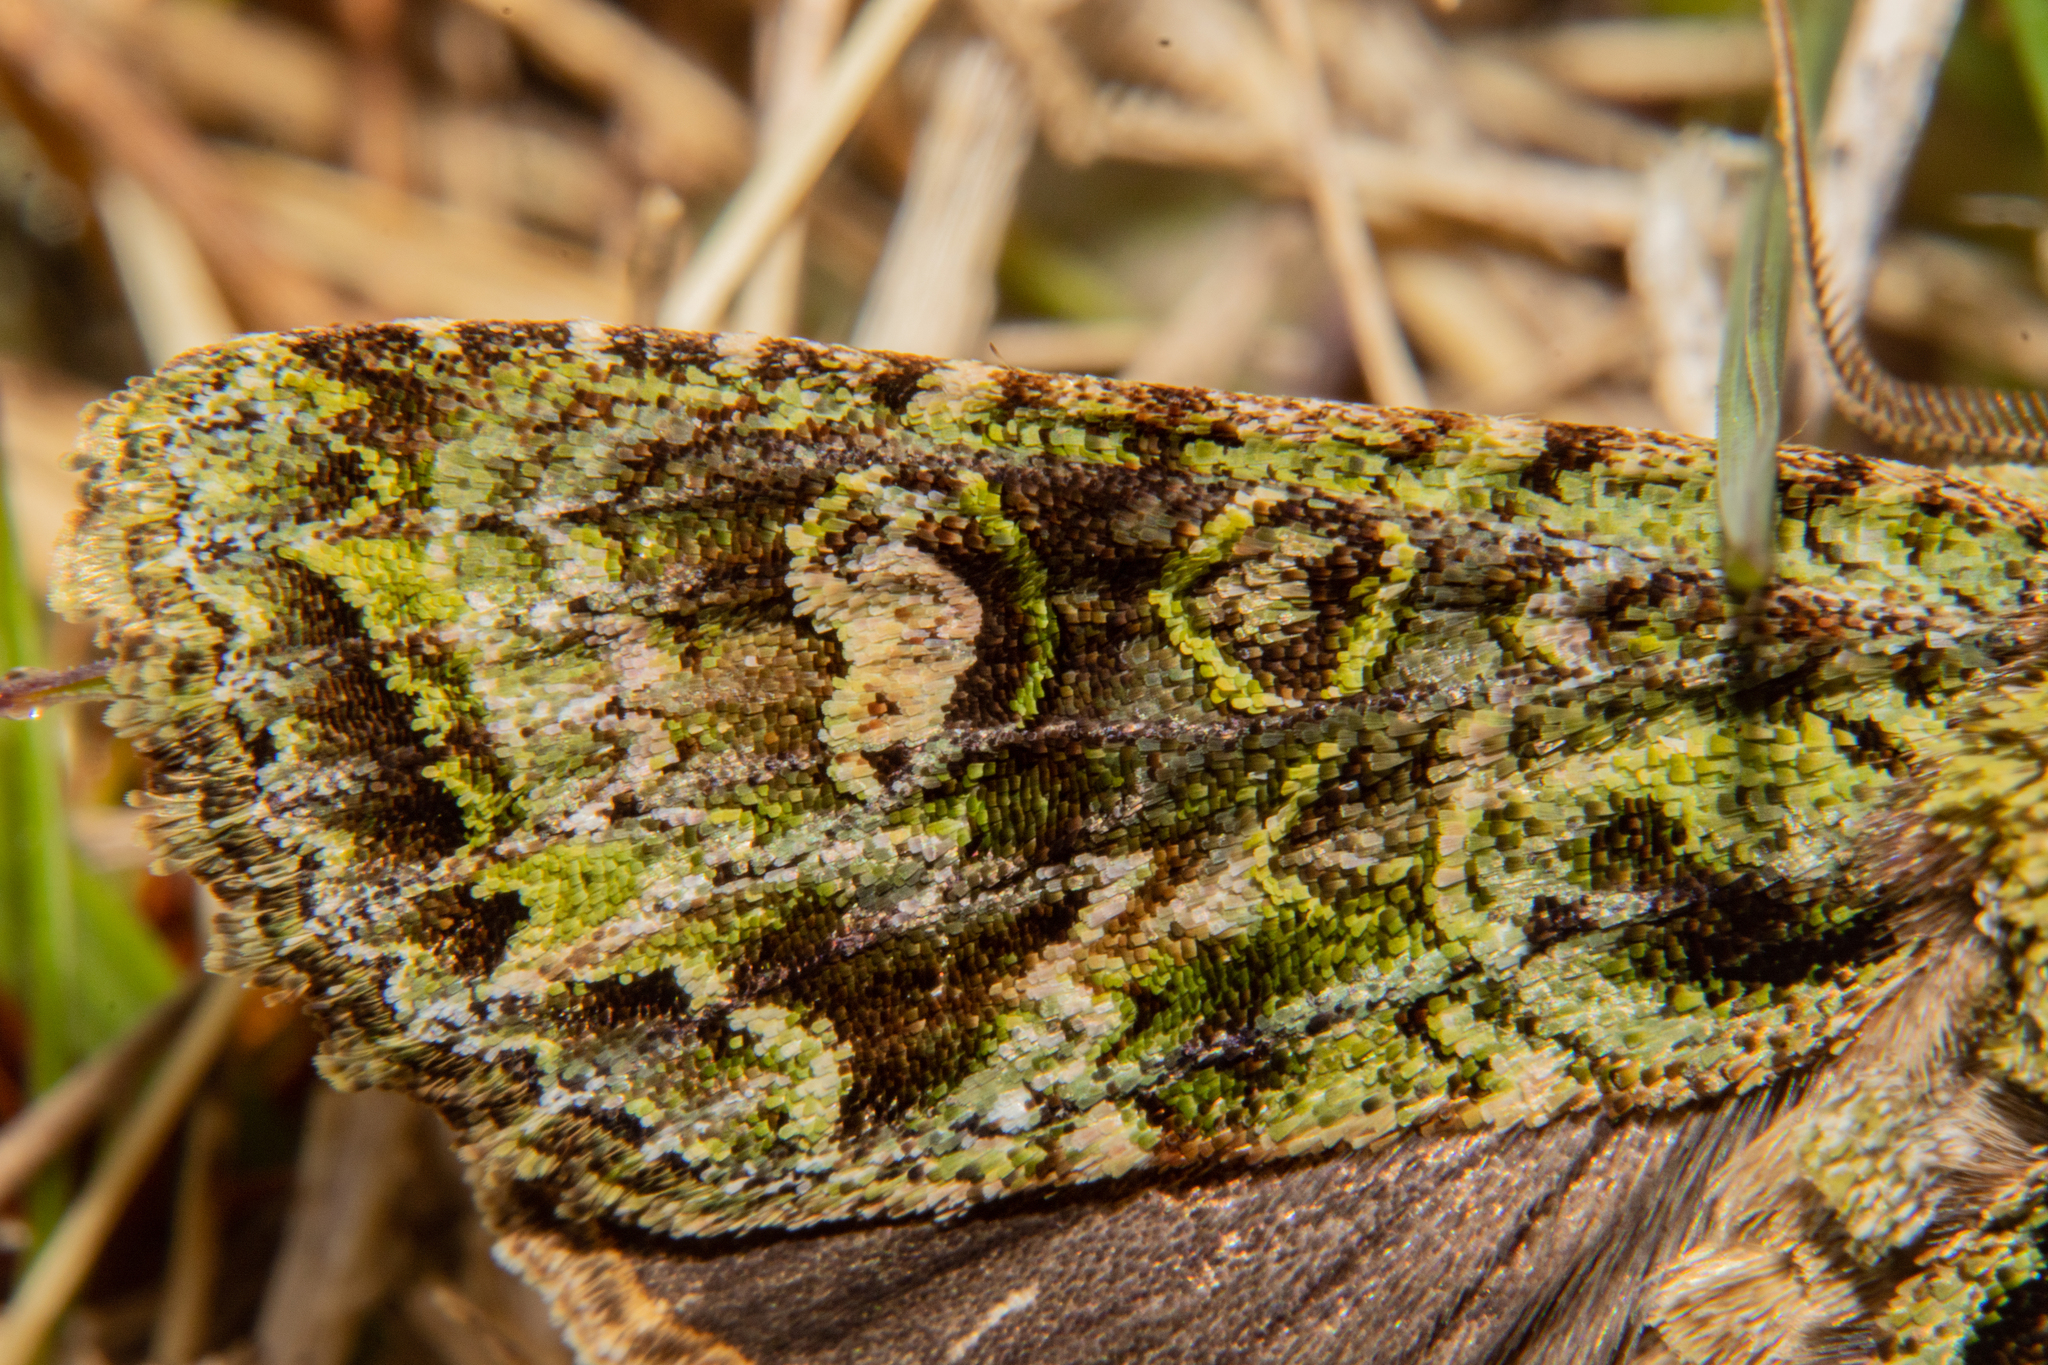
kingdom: Animalia
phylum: Arthropoda
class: Insecta
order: Lepidoptera
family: Noctuidae
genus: Ichneutica
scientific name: Ichneutica
